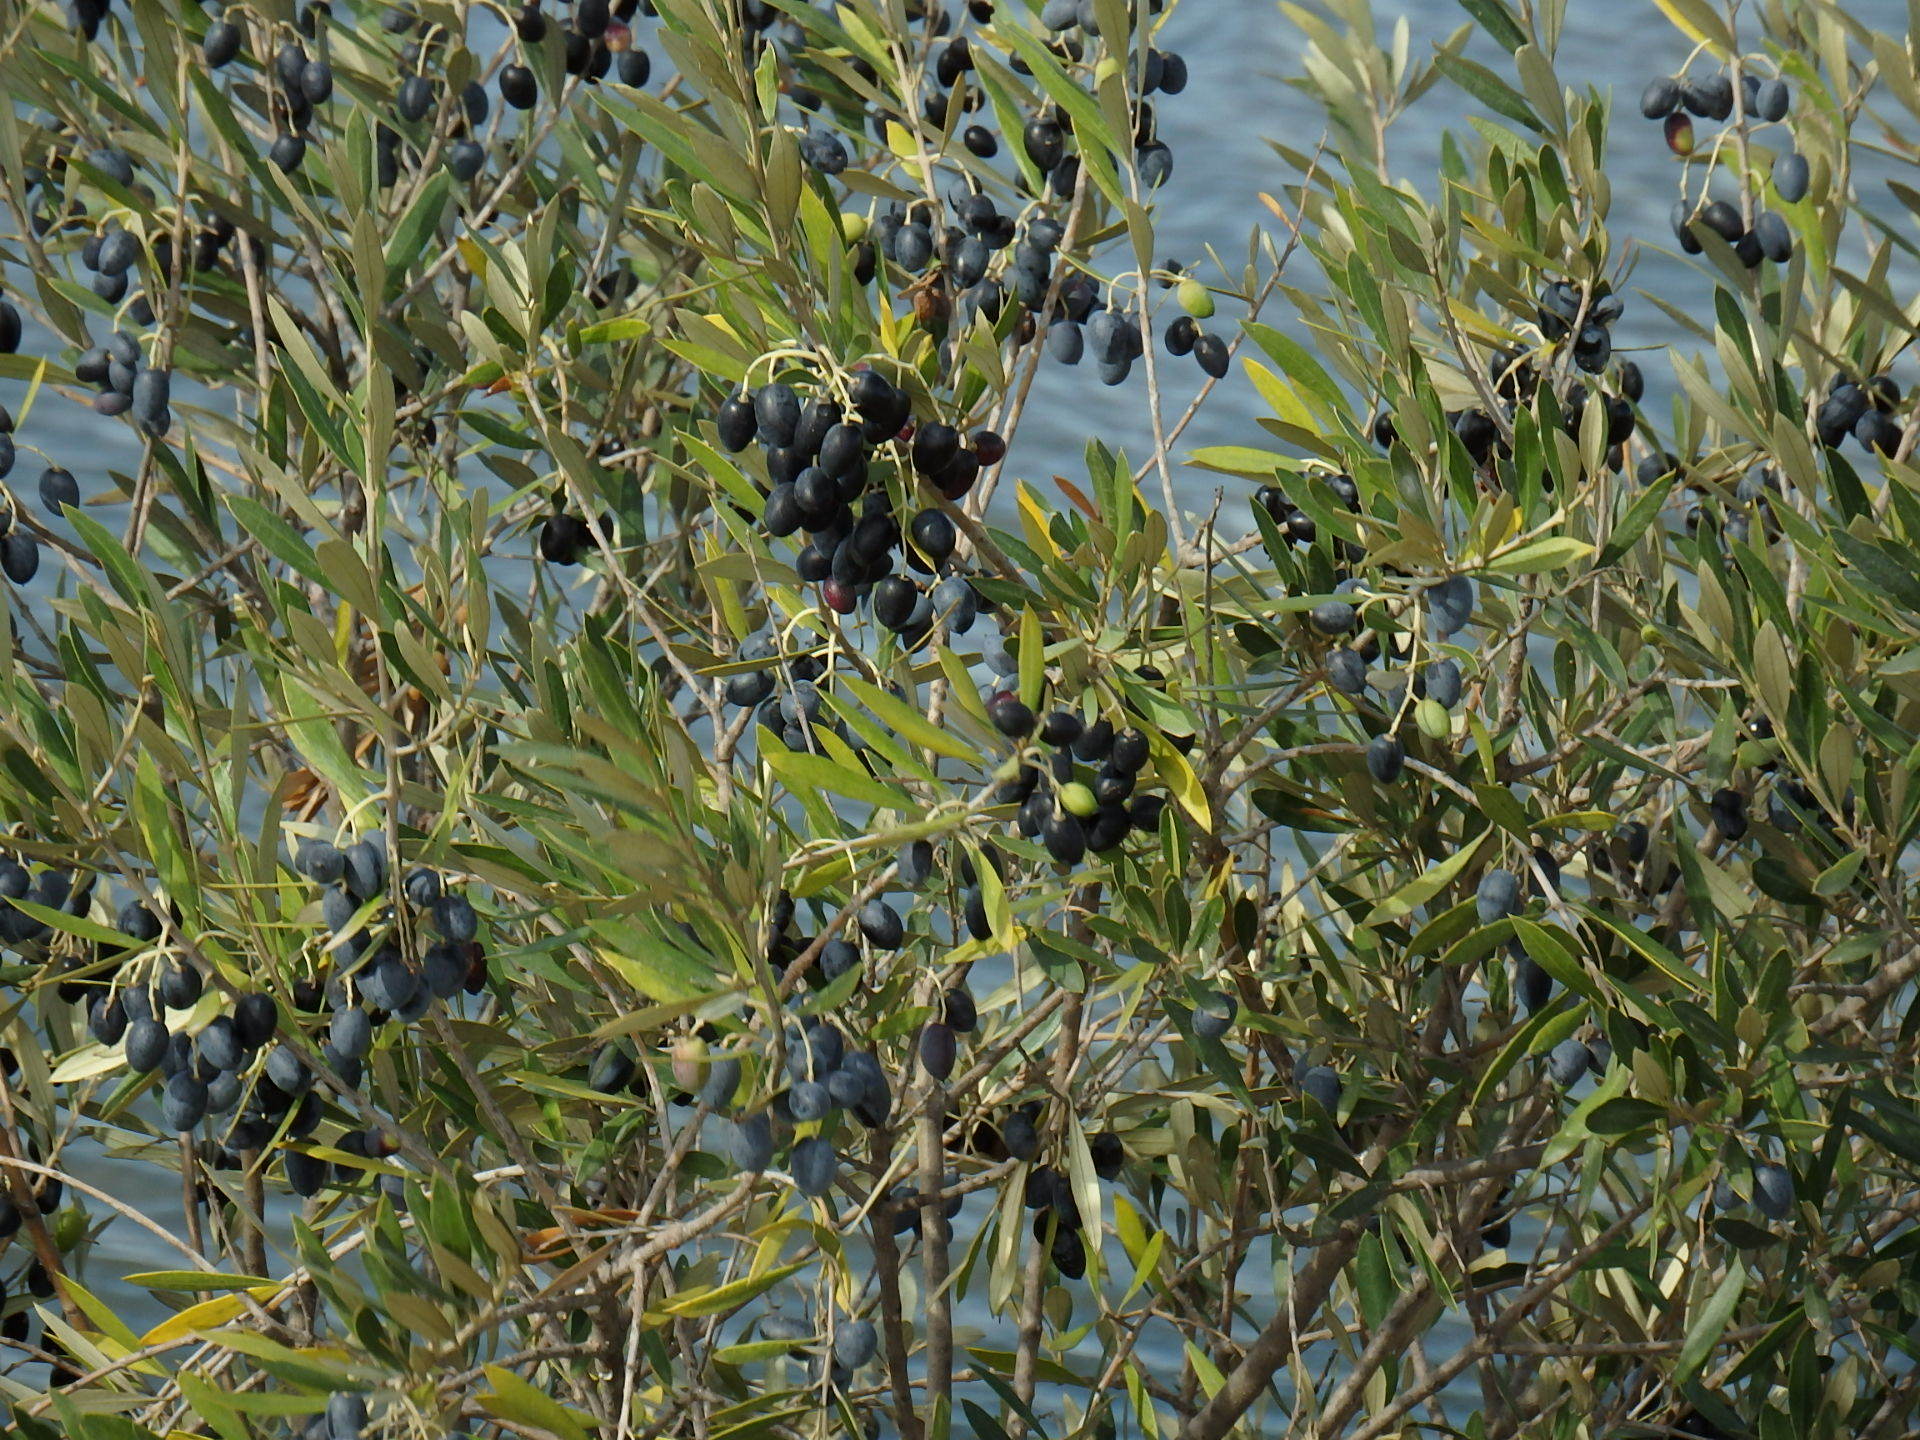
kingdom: Plantae
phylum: Tracheophyta
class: Magnoliopsida
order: Lamiales
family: Oleaceae
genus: Olea
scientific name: Olea europaea
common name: Olive
